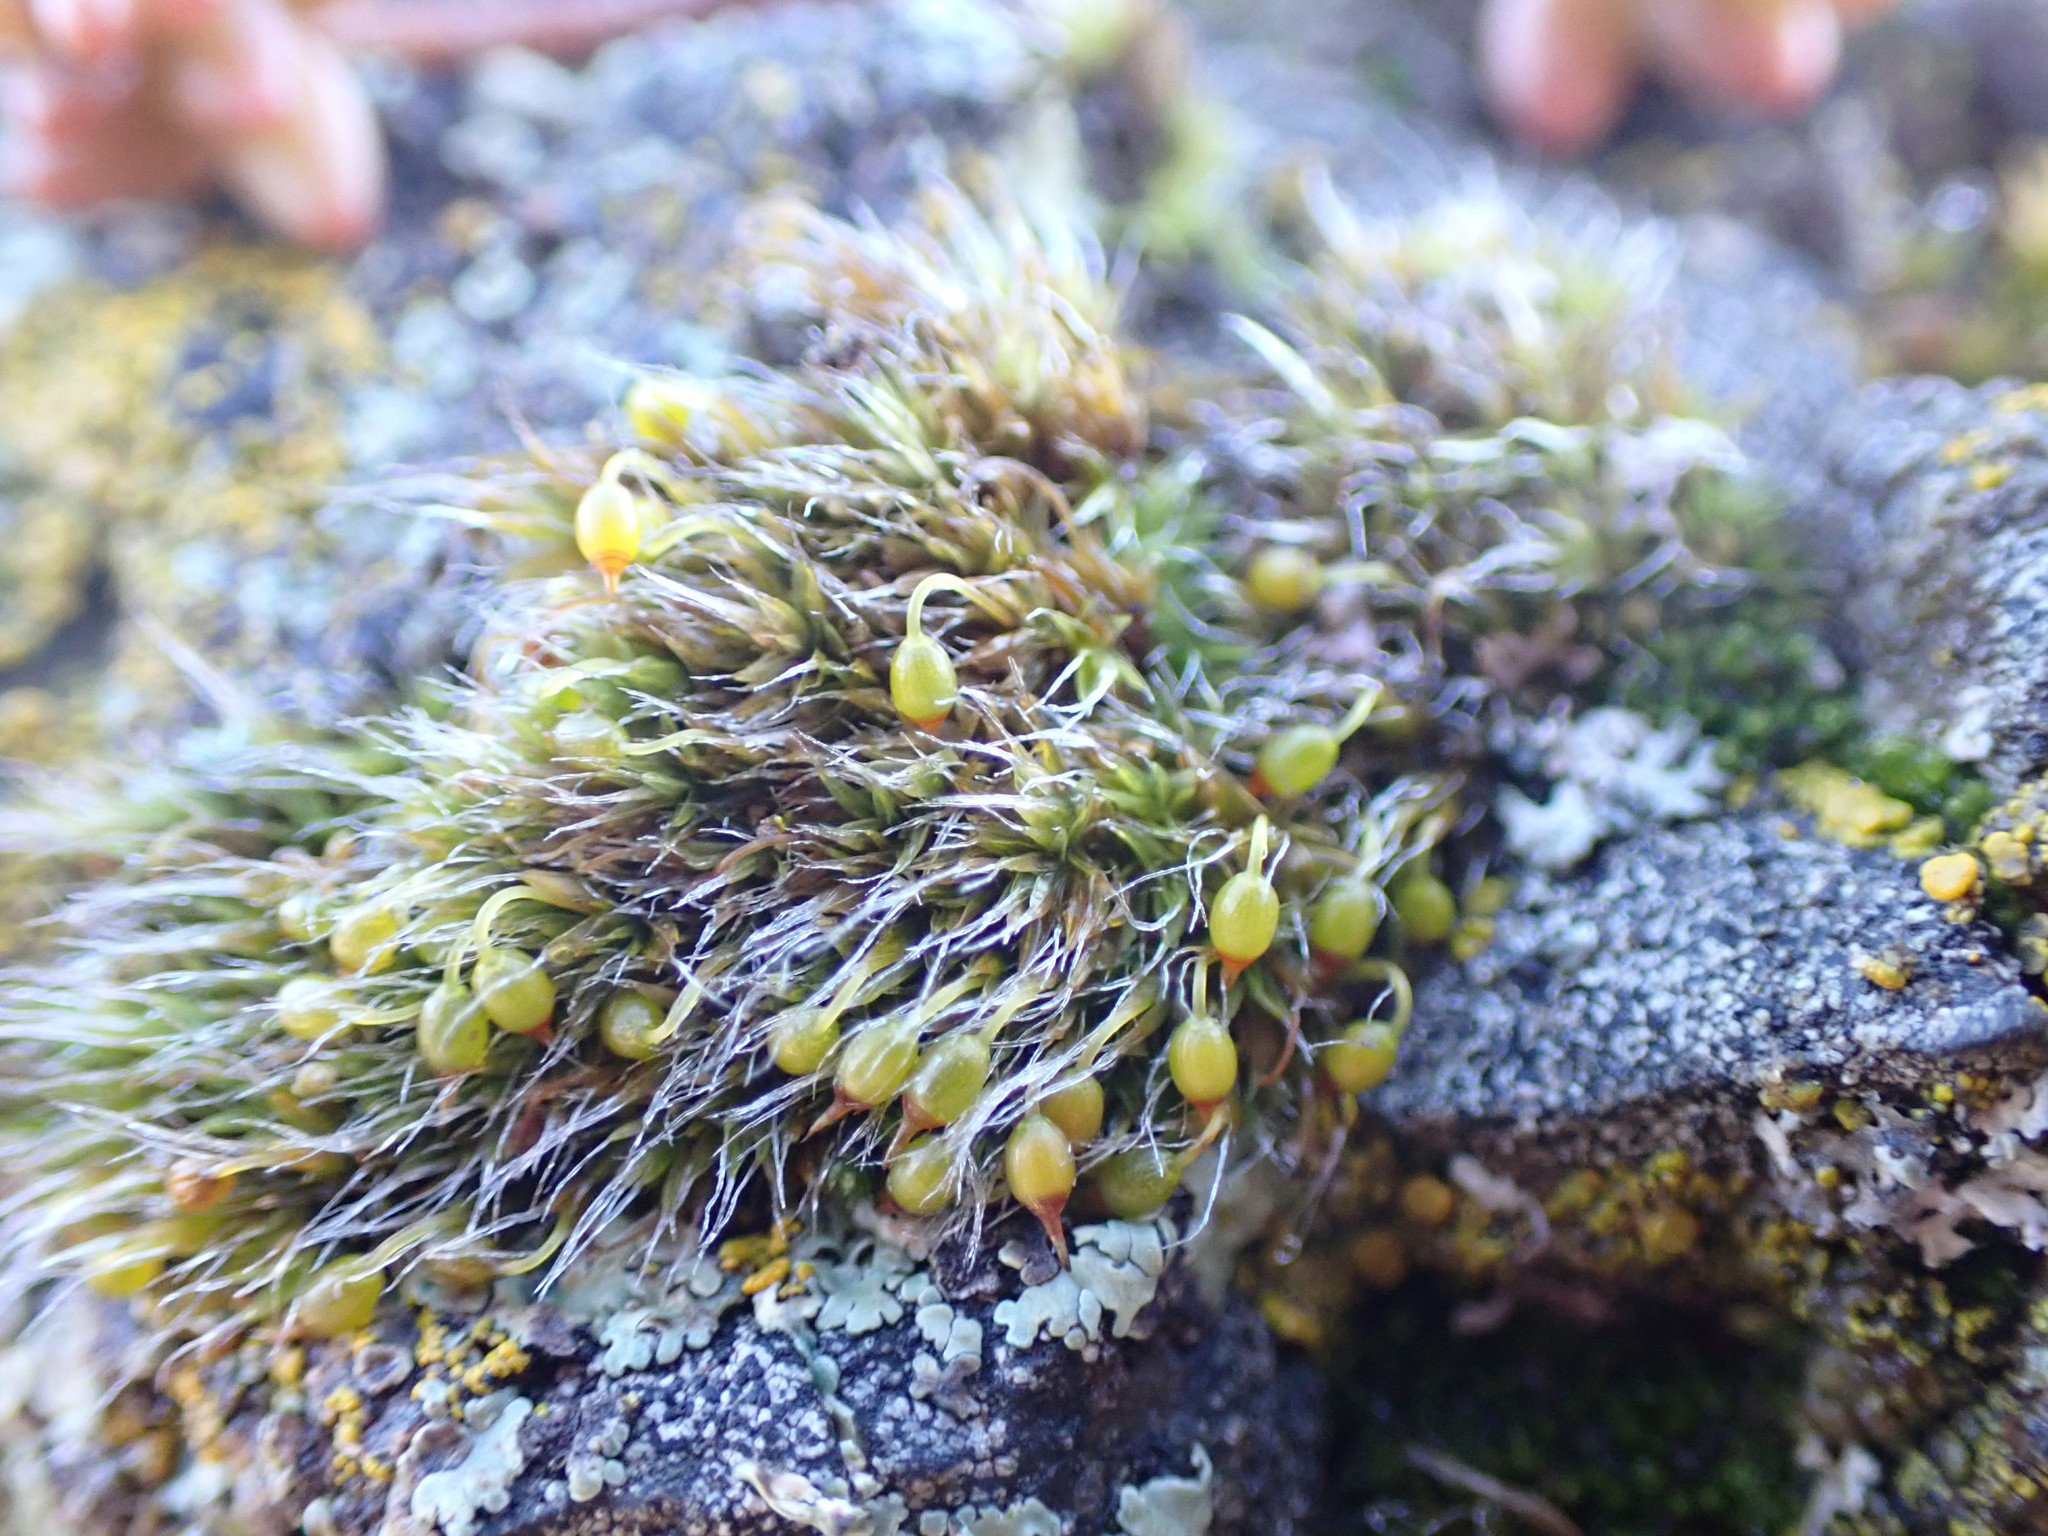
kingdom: Plantae
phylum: Bryophyta
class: Bryopsida
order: Grimmiales
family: Grimmiaceae
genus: Grimmia
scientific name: Grimmia pulvinata
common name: Grey-cushioned grimmia
